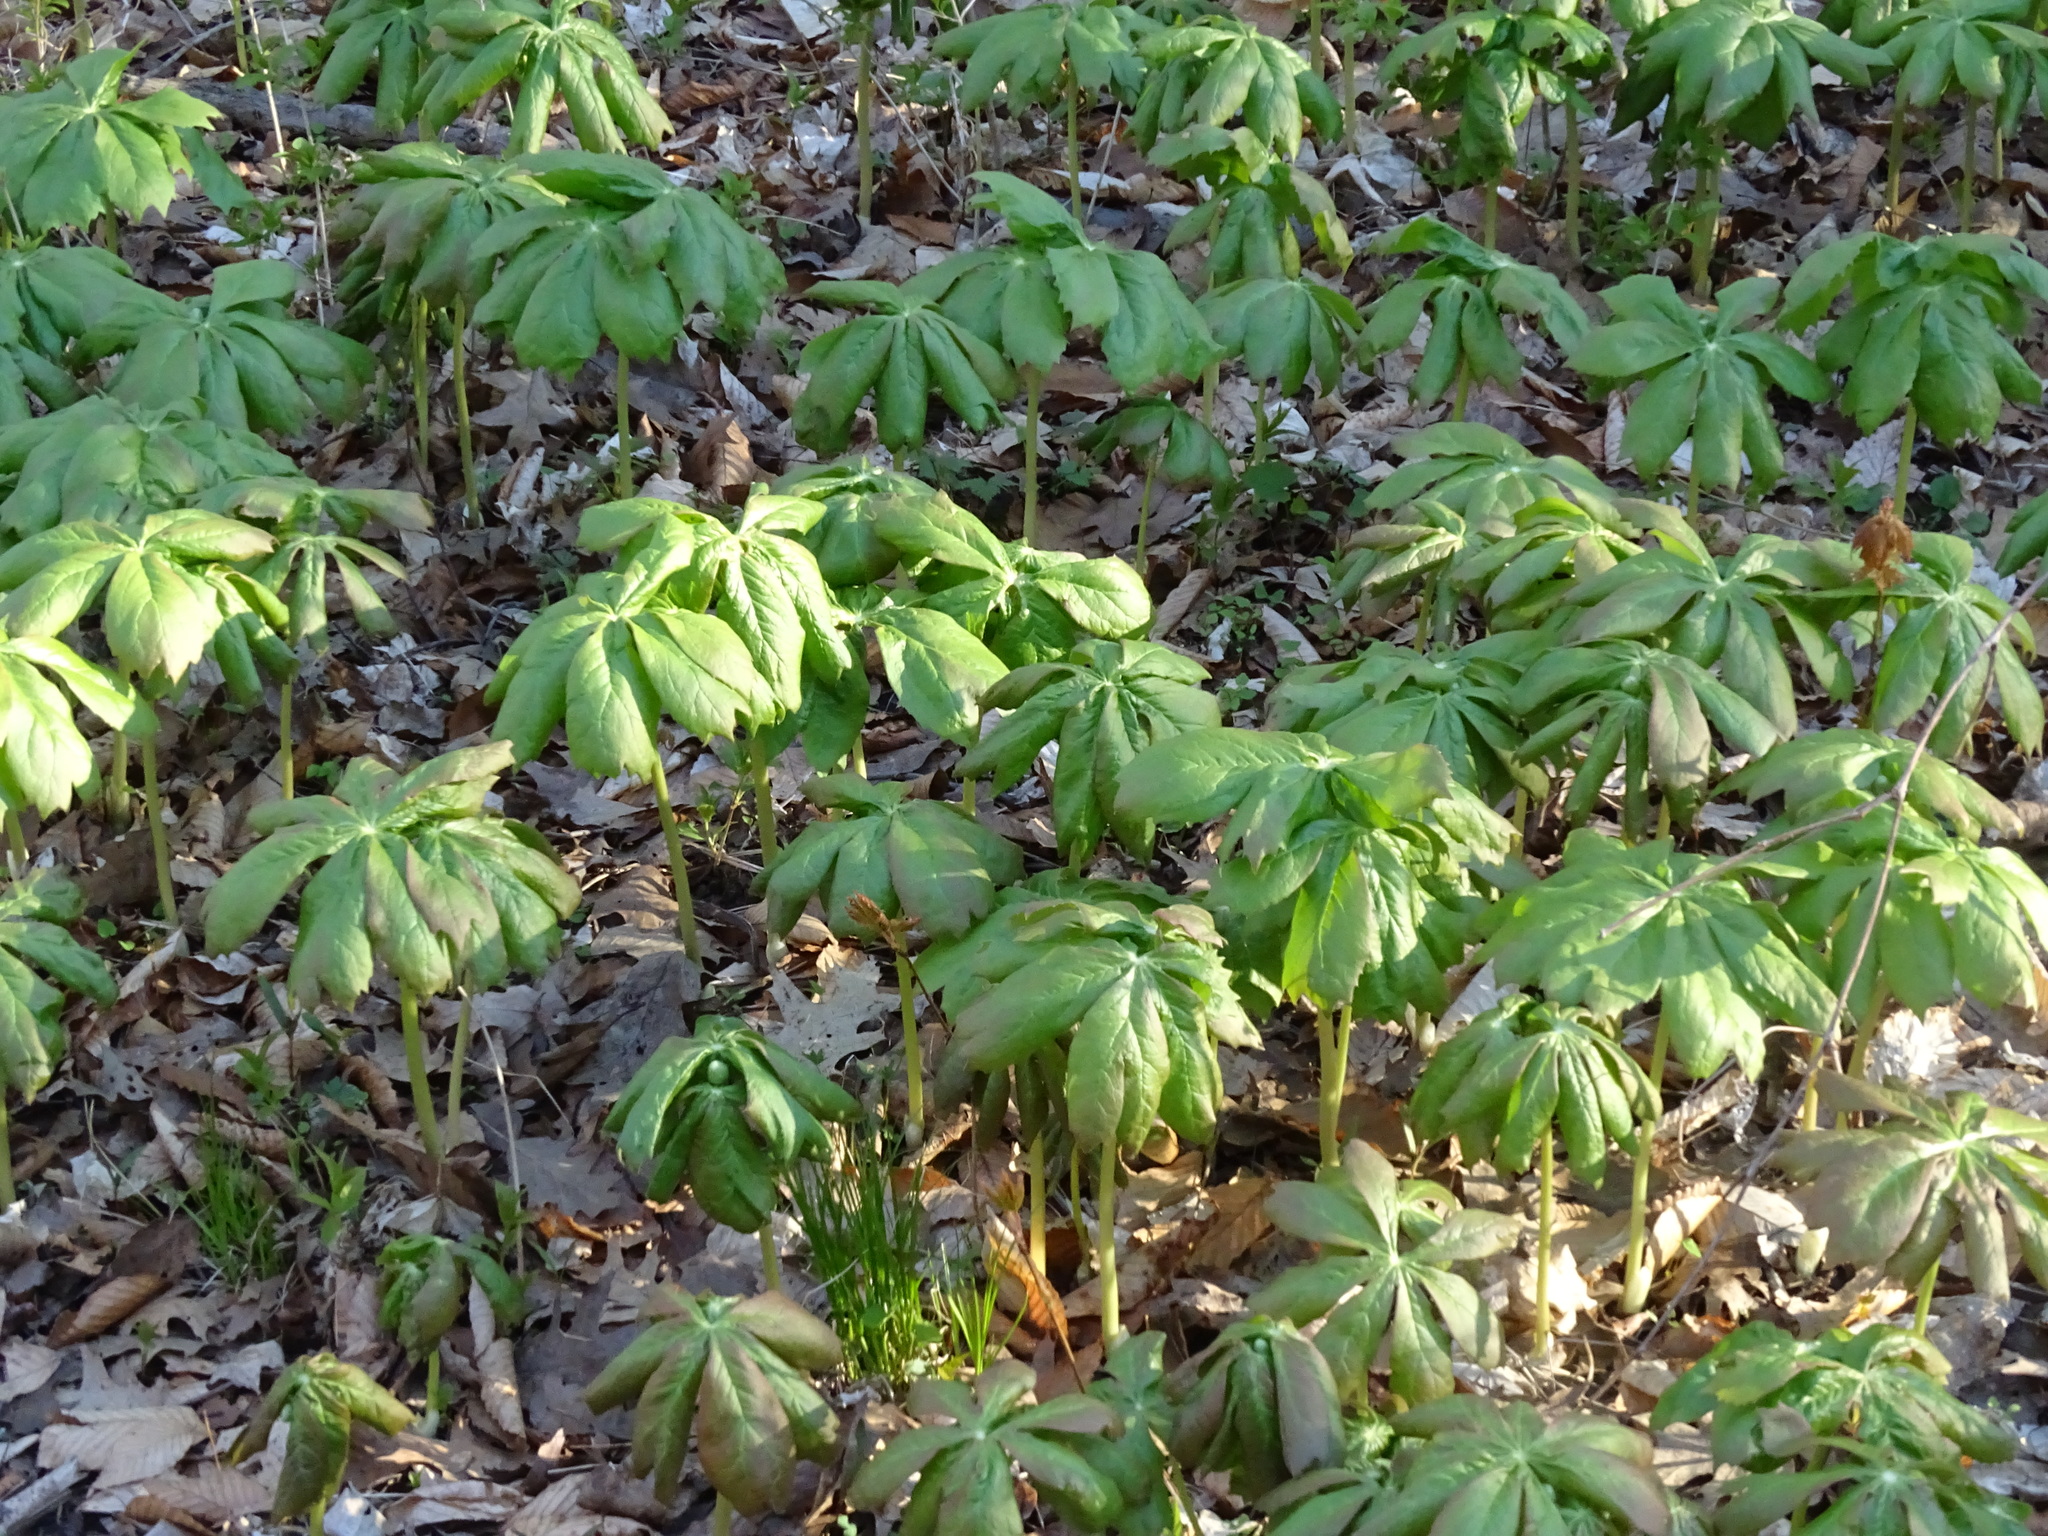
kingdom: Plantae
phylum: Tracheophyta
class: Magnoliopsida
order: Ranunculales
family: Berberidaceae
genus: Podophyllum
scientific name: Podophyllum peltatum
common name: Wild mandrake
